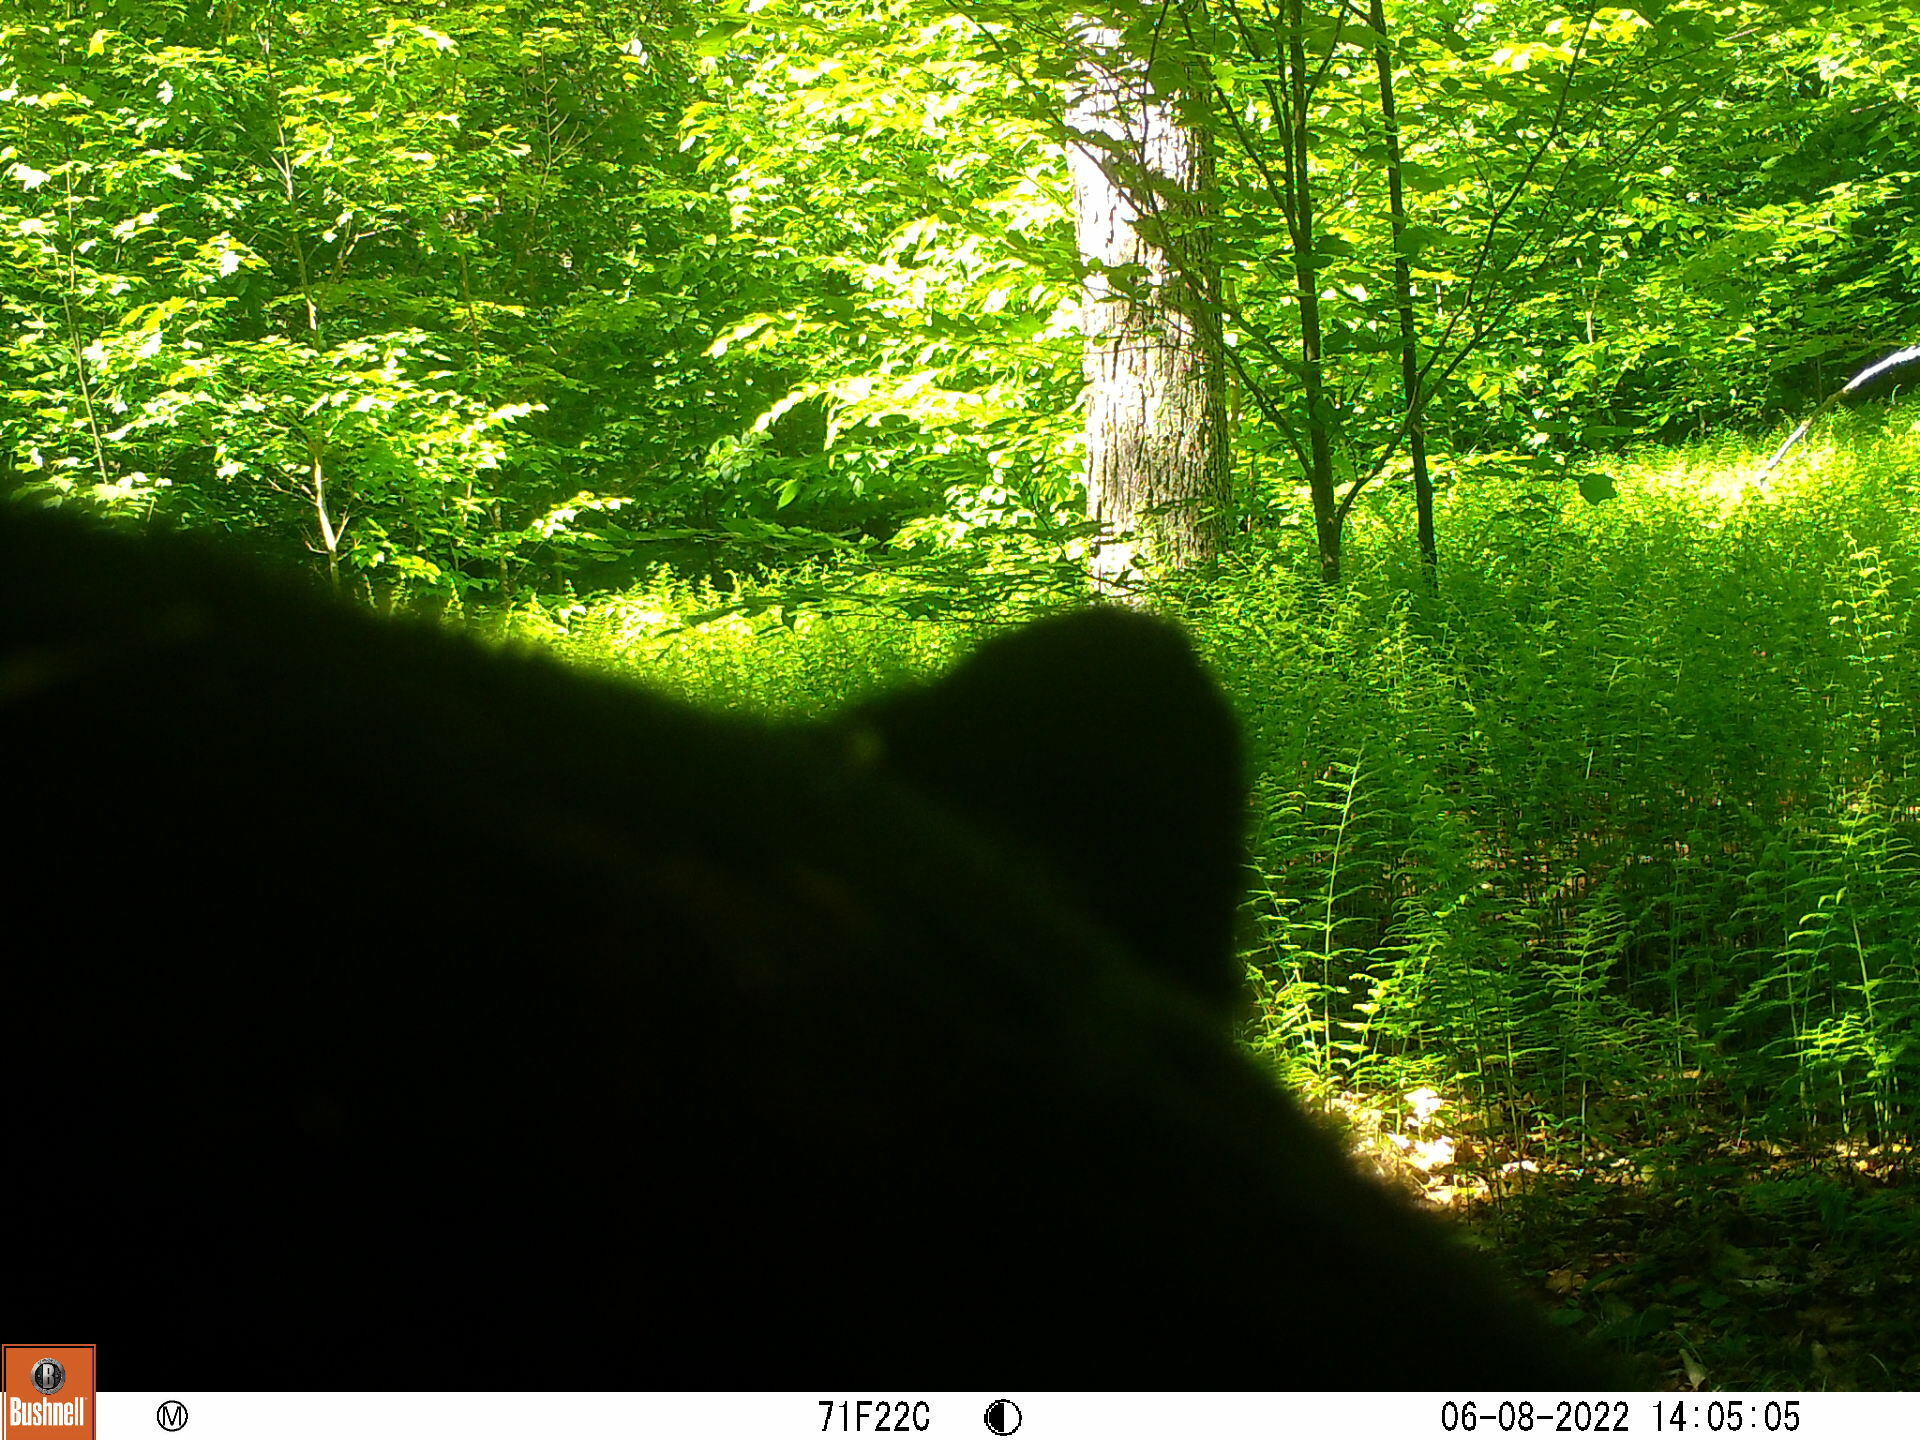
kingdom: Animalia
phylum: Chordata
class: Mammalia
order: Carnivora
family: Ursidae
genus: Ursus
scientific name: Ursus americanus
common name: American black bear
